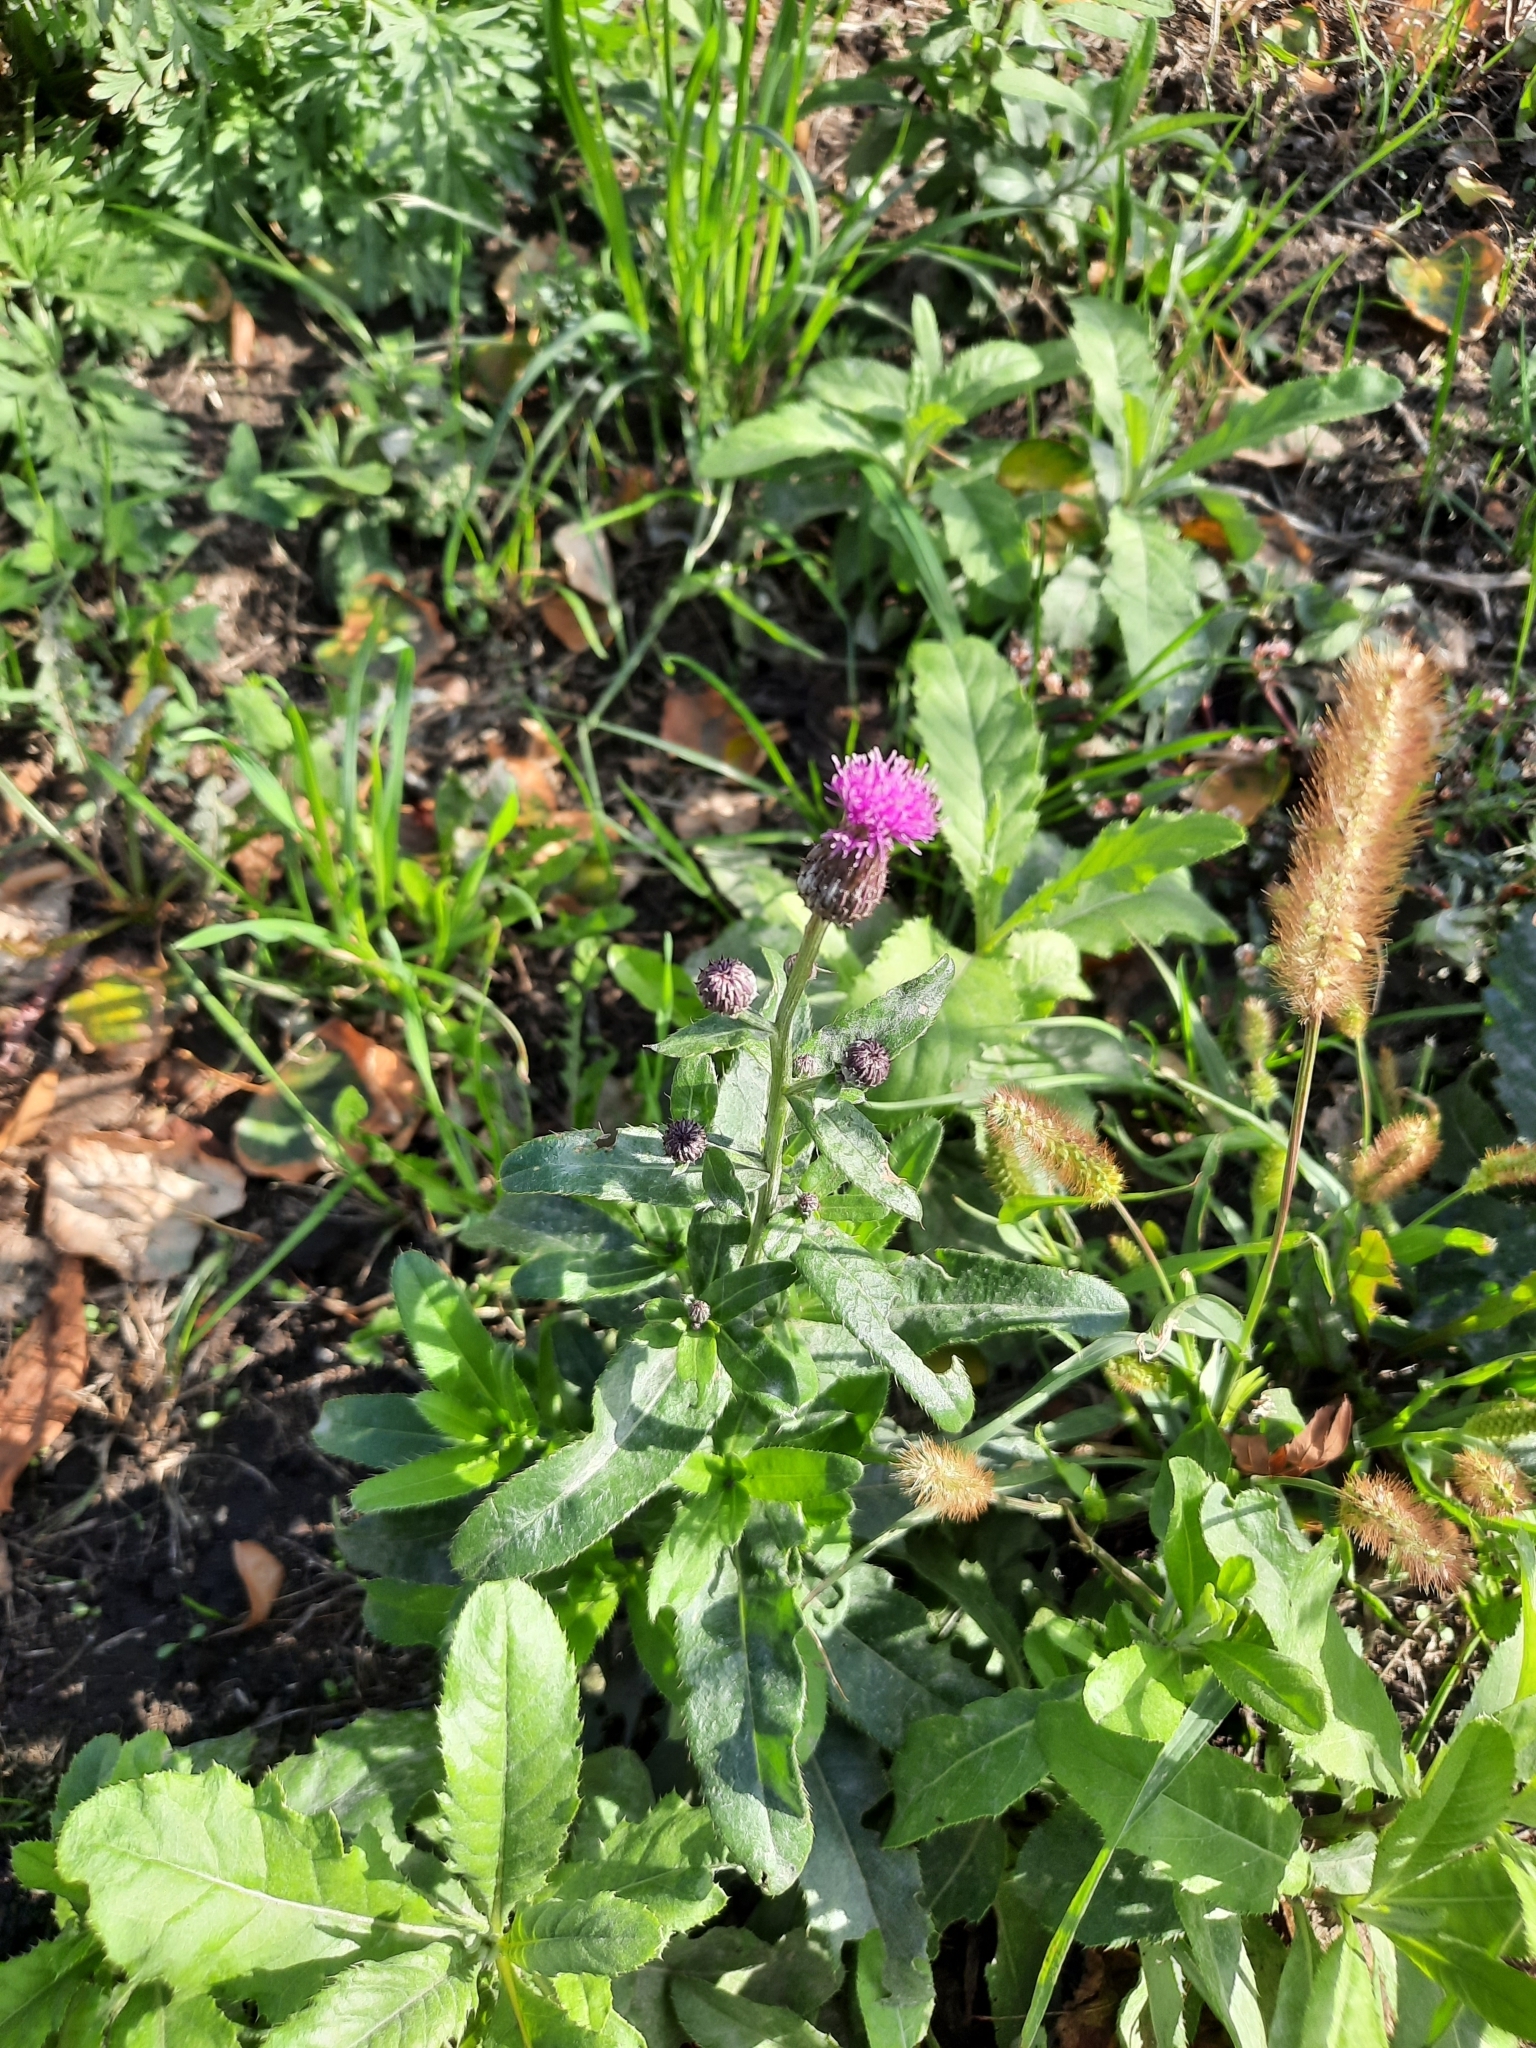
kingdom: Plantae
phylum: Tracheophyta
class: Magnoliopsida
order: Asterales
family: Asteraceae
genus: Cirsium
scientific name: Cirsium arvense
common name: Creeping thistle
